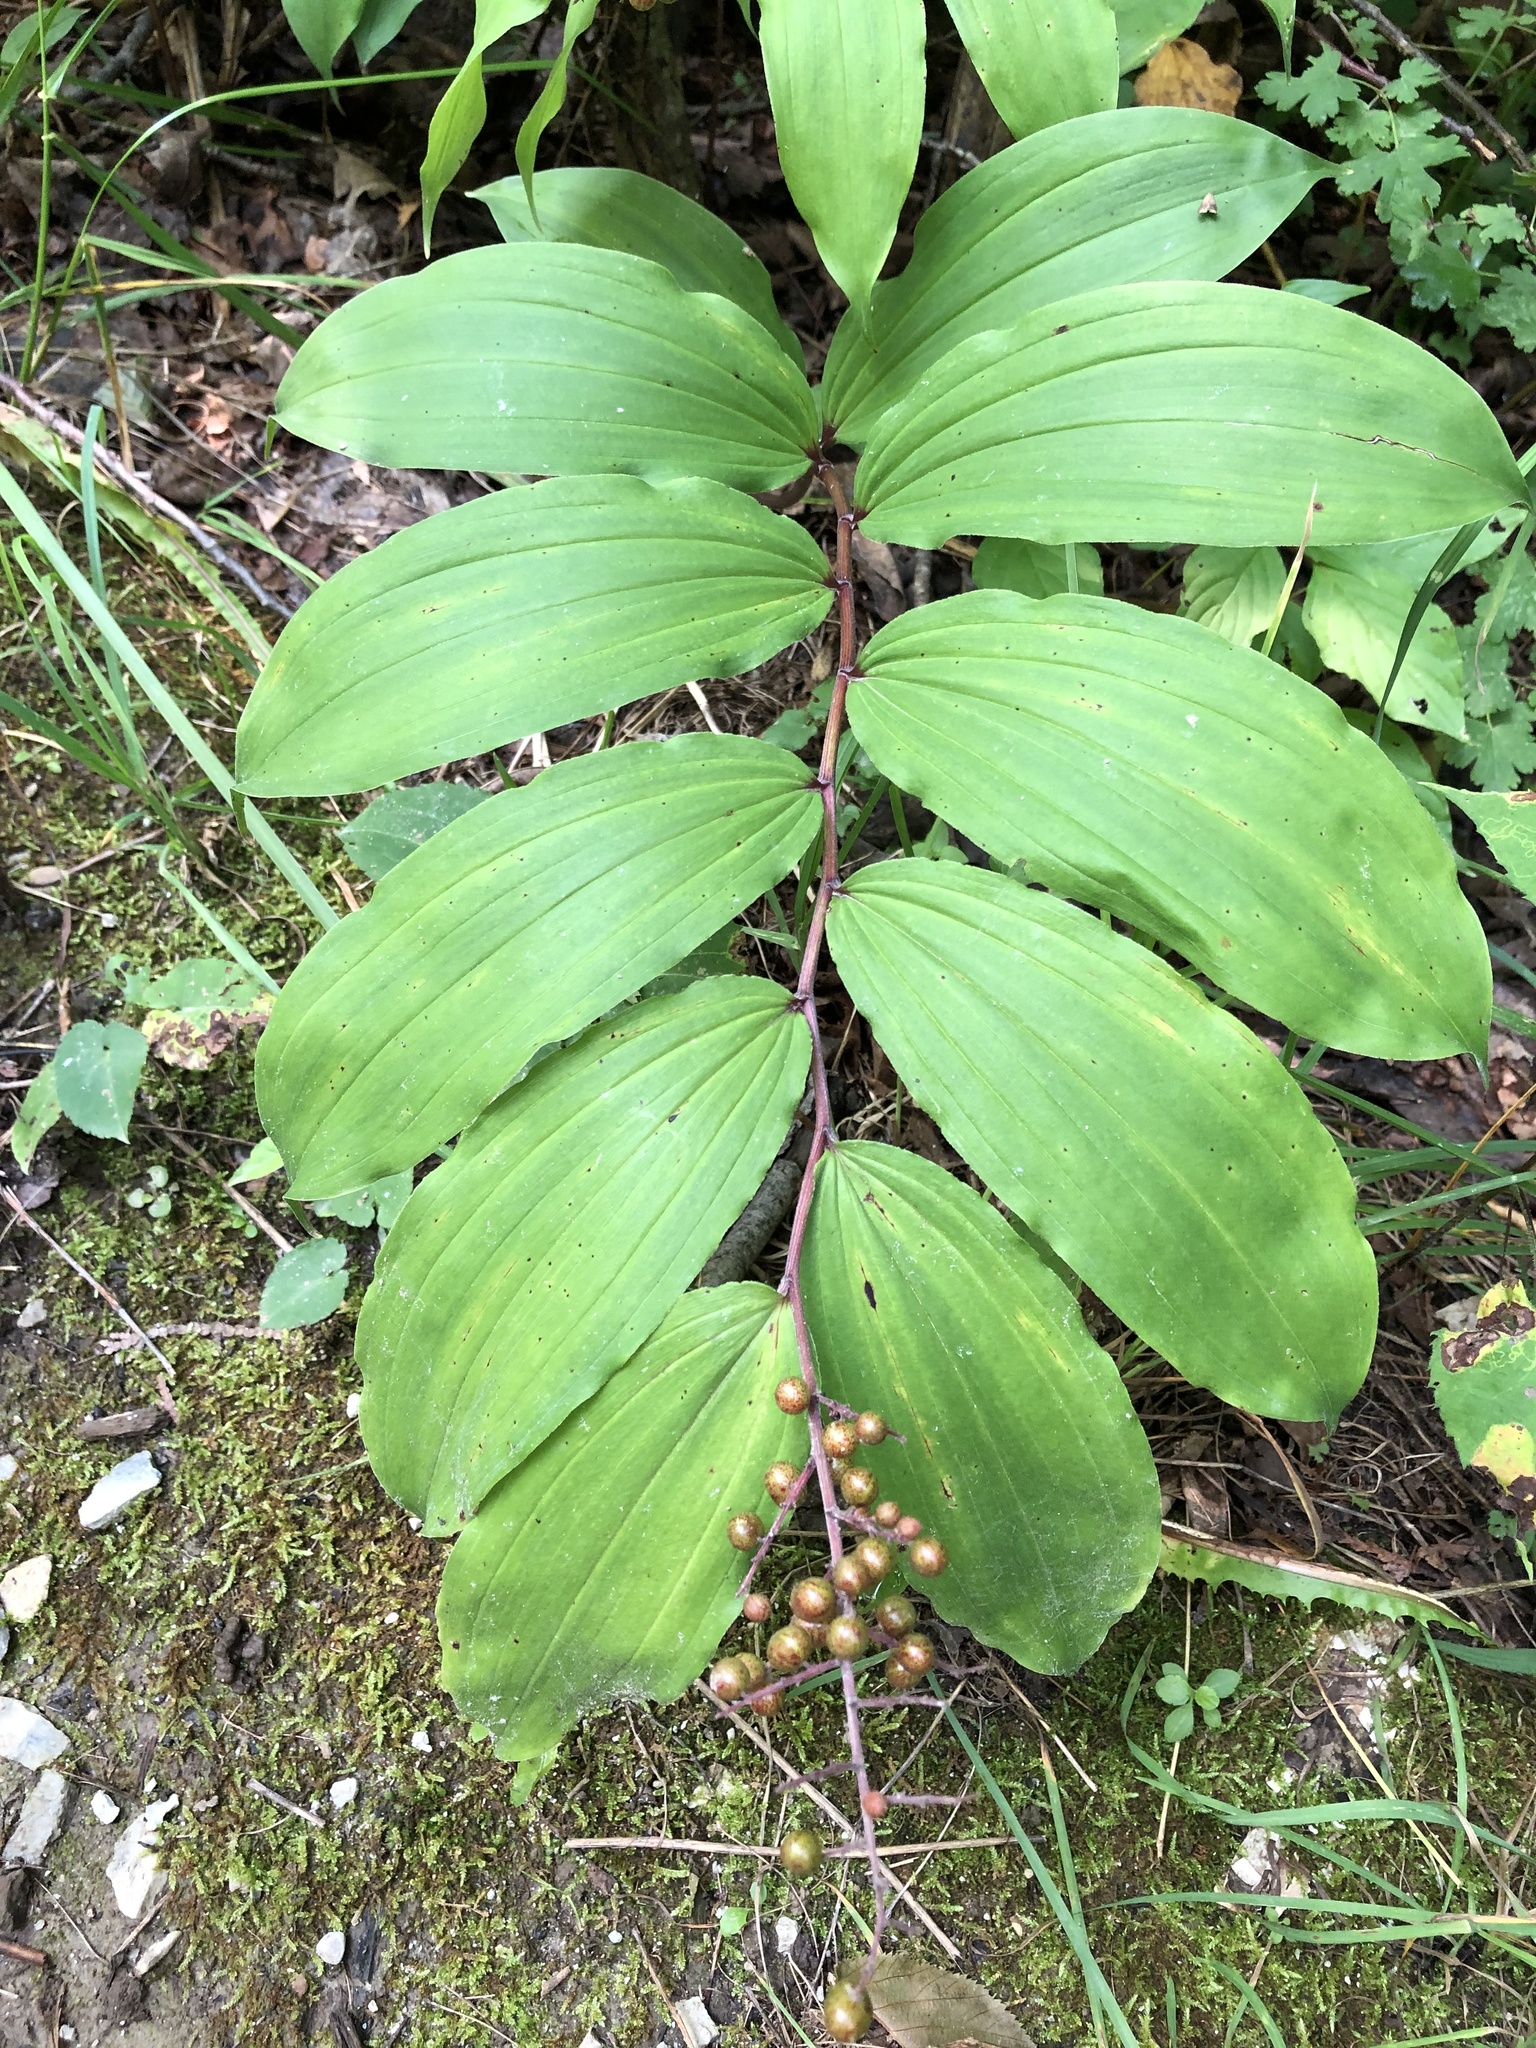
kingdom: Plantae
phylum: Tracheophyta
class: Liliopsida
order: Asparagales
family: Asparagaceae
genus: Maianthemum
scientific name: Maianthemum racemosum
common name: False spikenard
